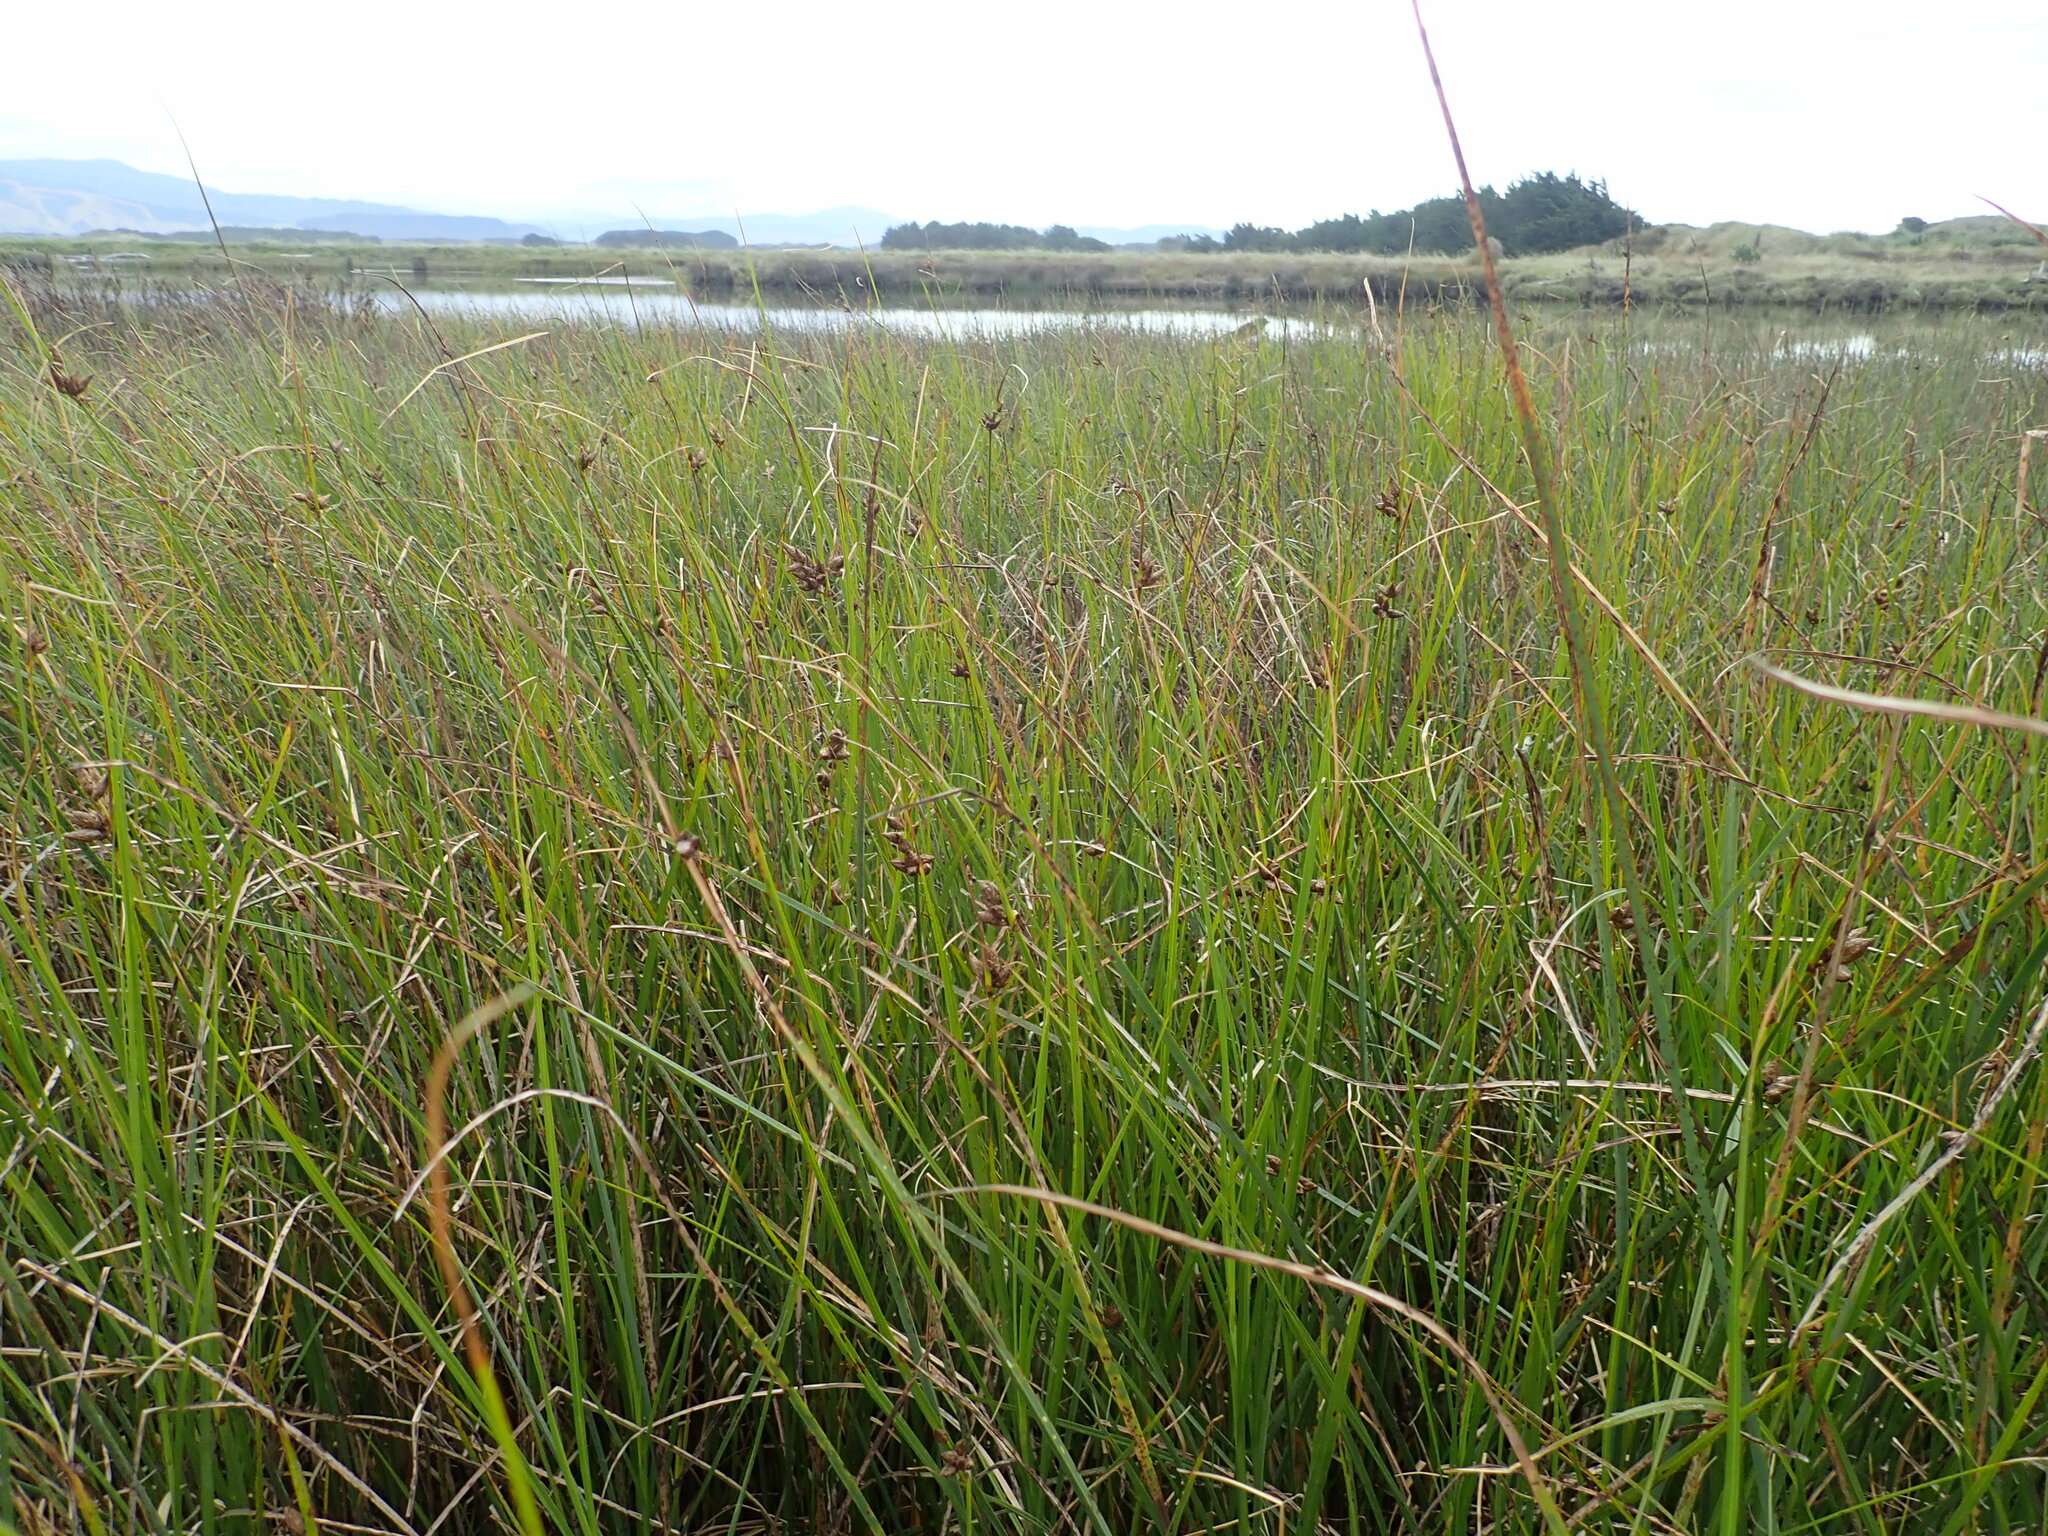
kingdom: Plantae
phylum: Tracheophyta
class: Liliopsida
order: Poales
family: Cyperaceae
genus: Bolboschoenus
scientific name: Bolboschoenus caldwellii
